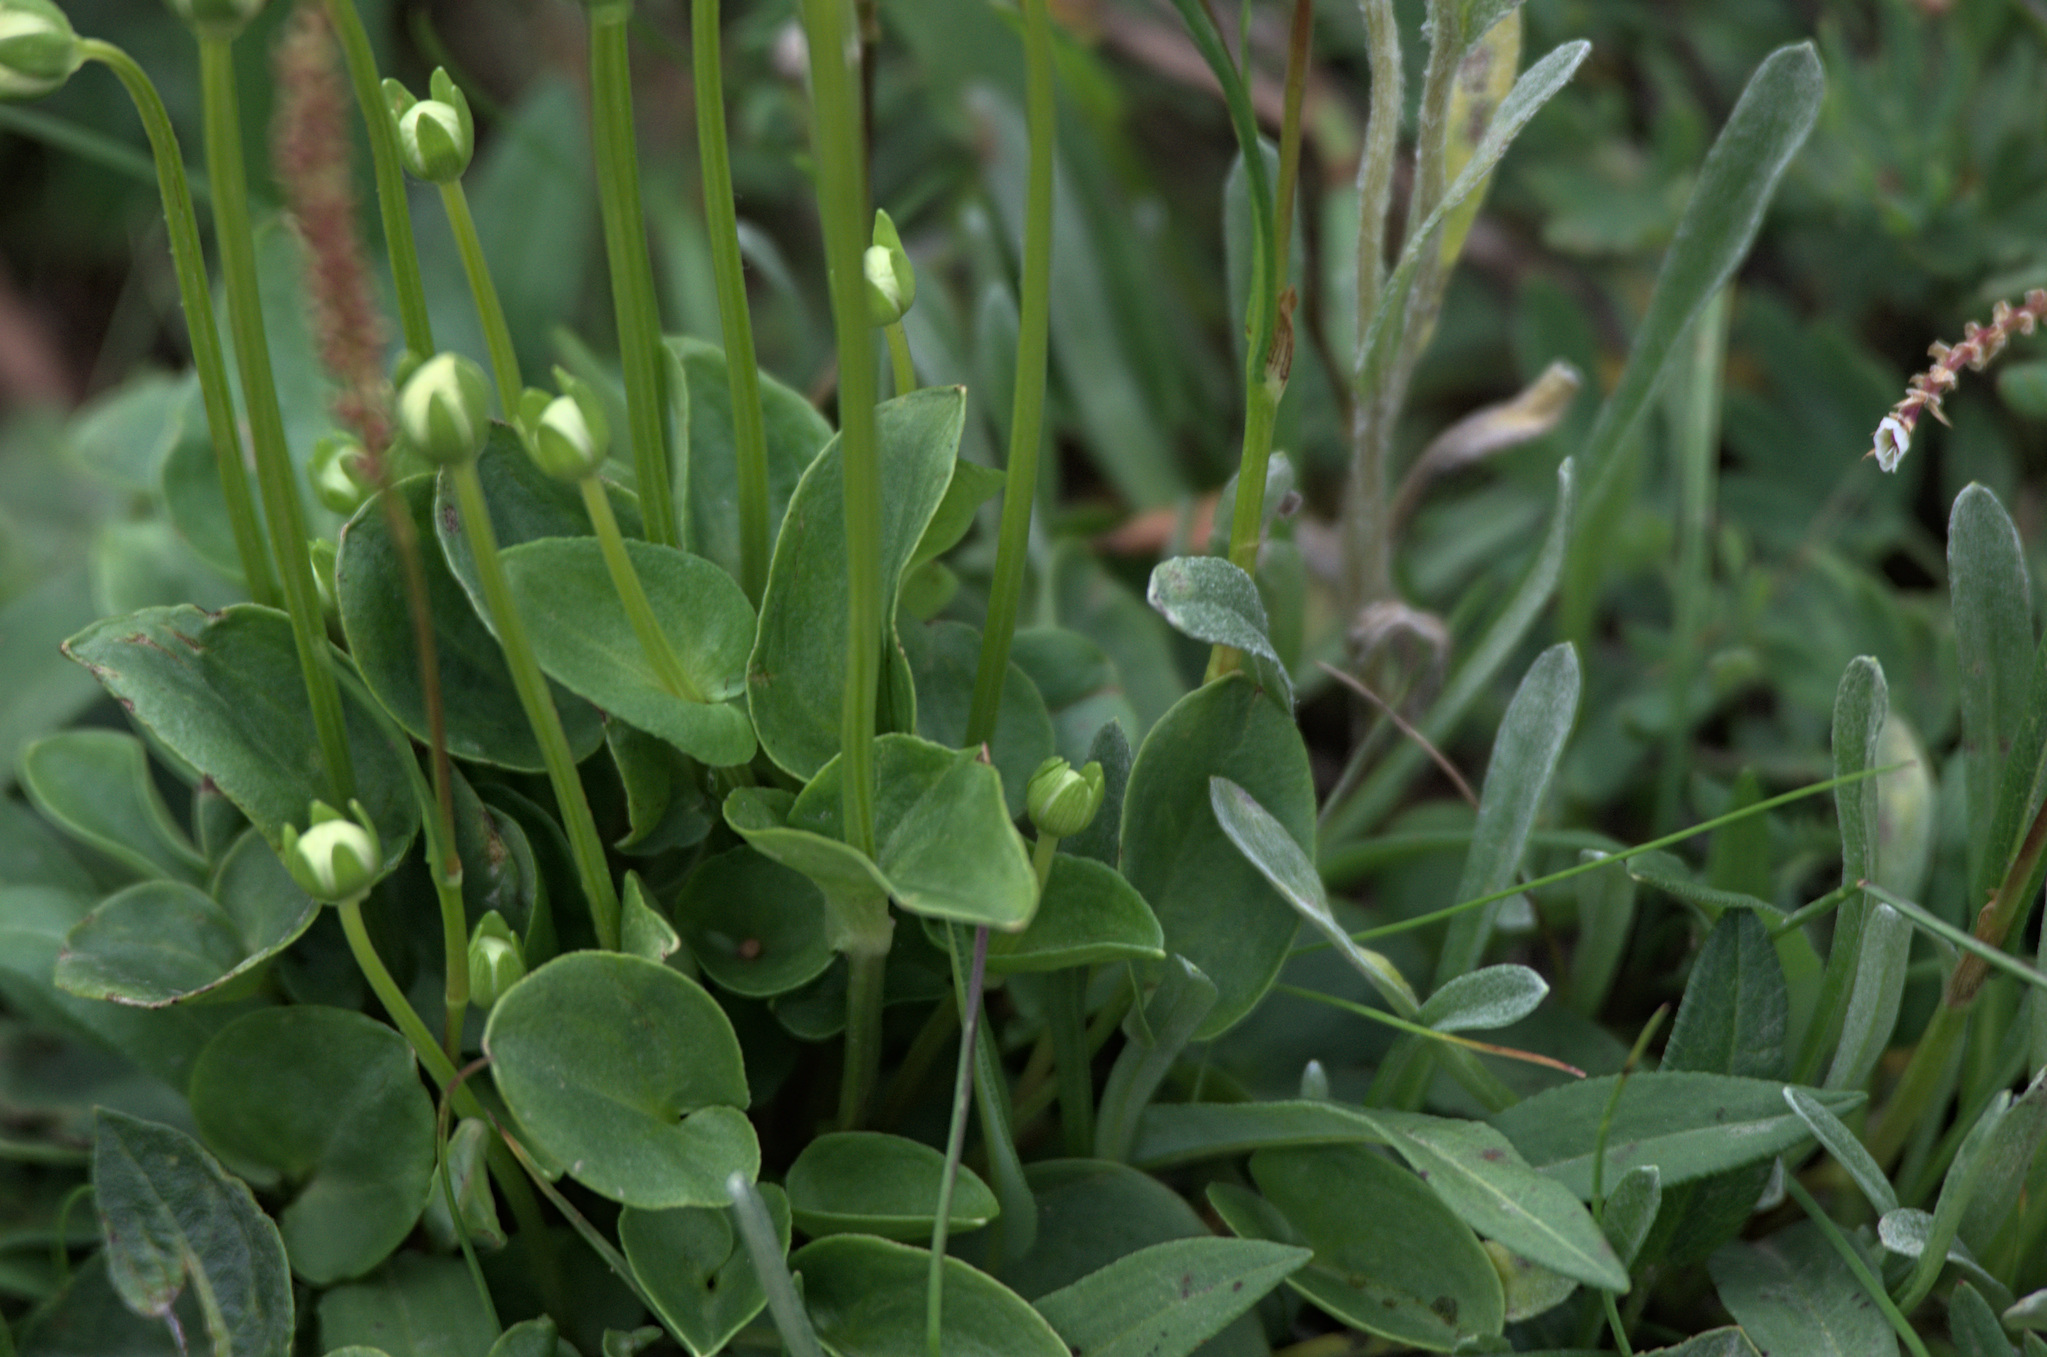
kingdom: Plantae
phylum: Tracheophyta
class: Magnoliopsida
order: Celastrales
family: Parnassiaceae
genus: Parnassia
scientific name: Parnassia palustris
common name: Grass-of-parnassus
